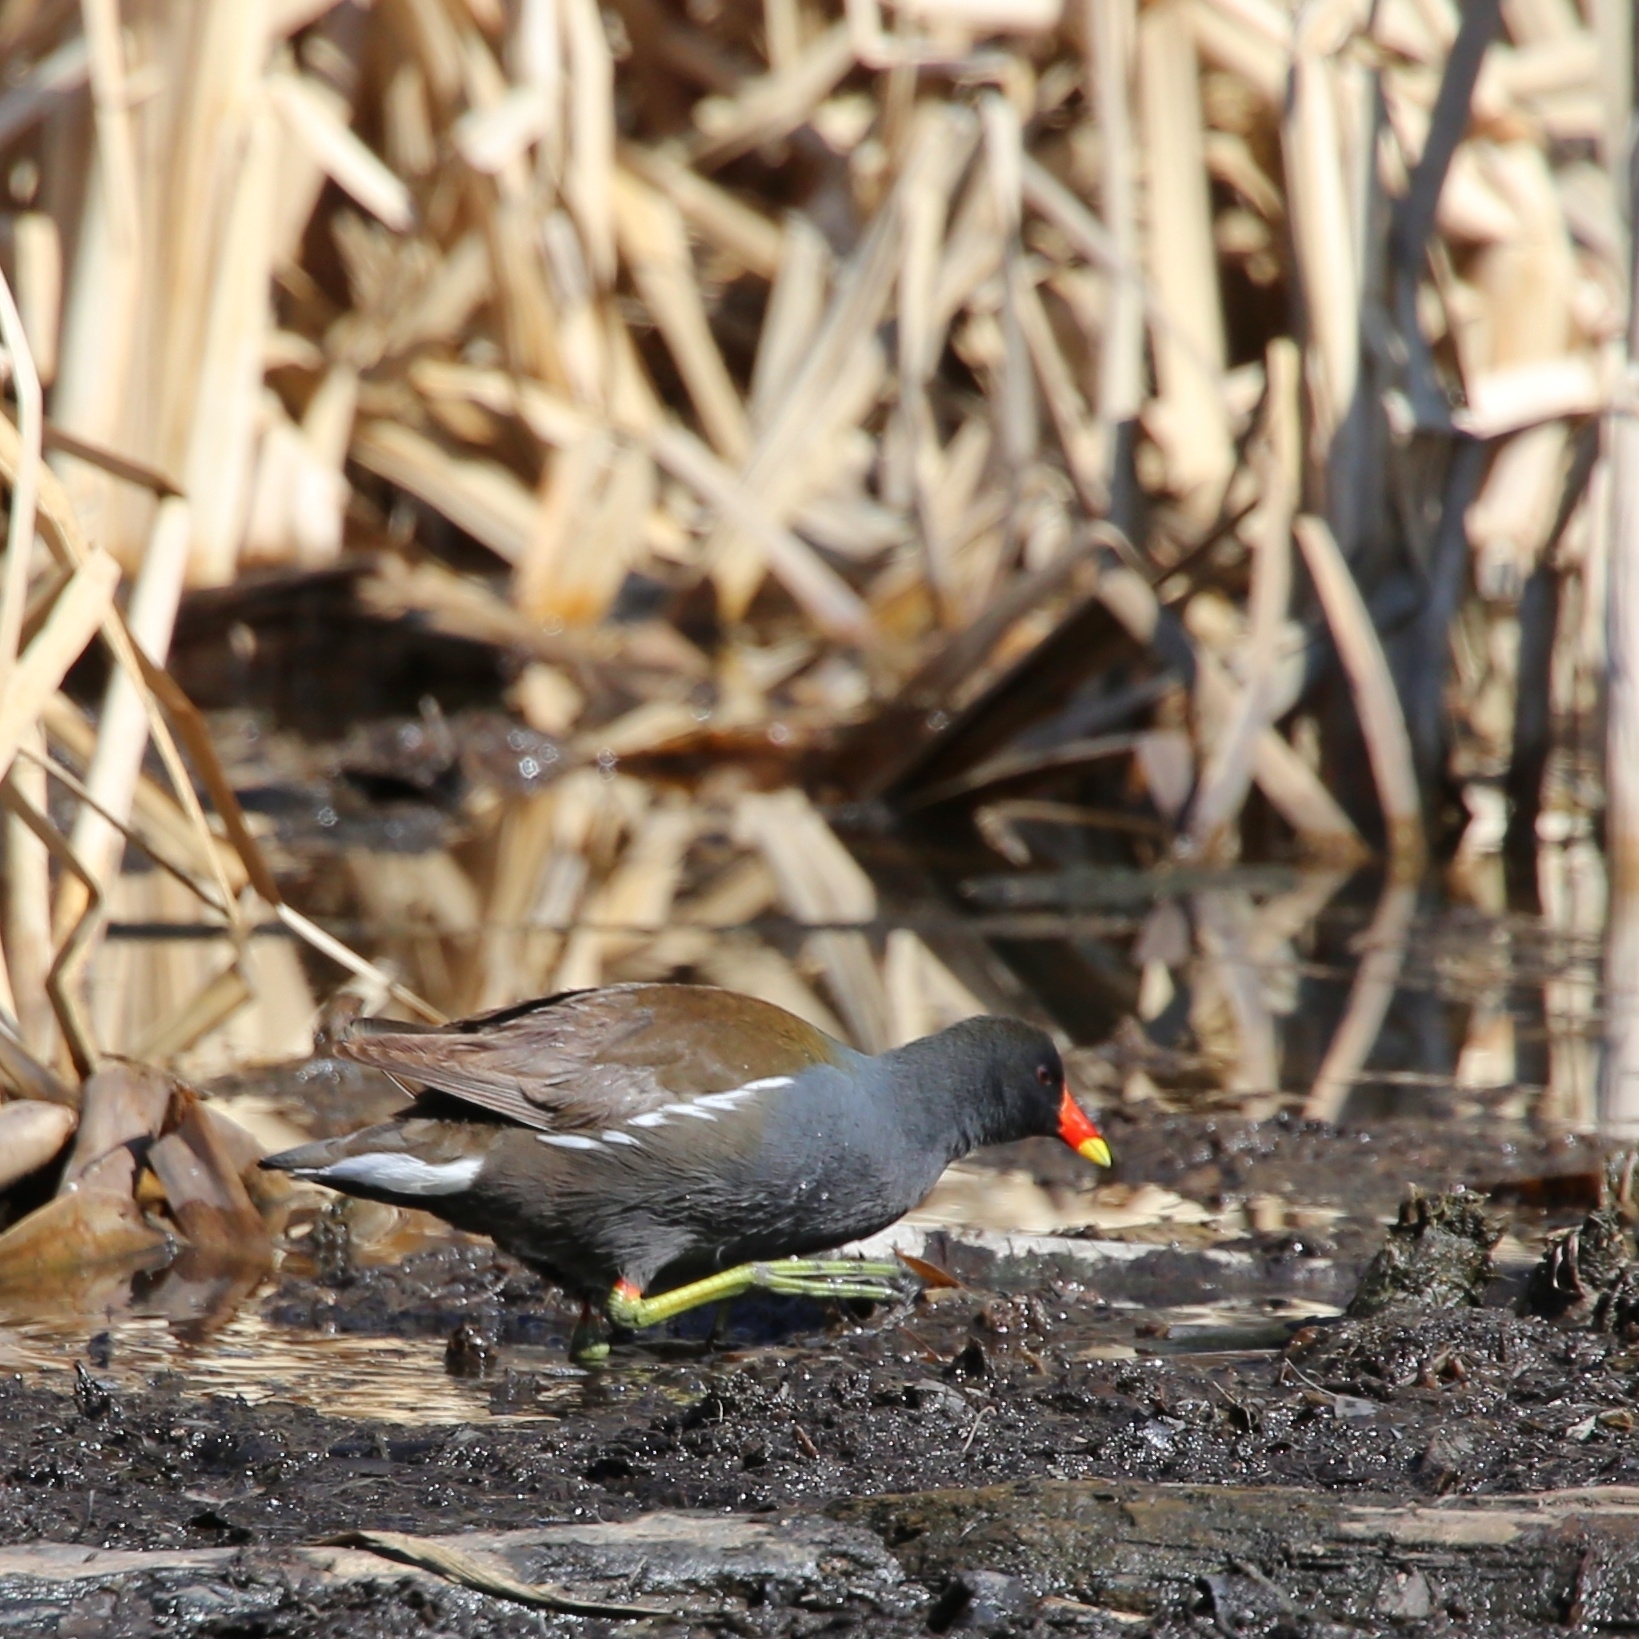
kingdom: Animalia
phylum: Chordata
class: Aves
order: Gruiformes
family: Rallidae
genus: Gallinula
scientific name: Gallinula chloropus
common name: Common moorhen
